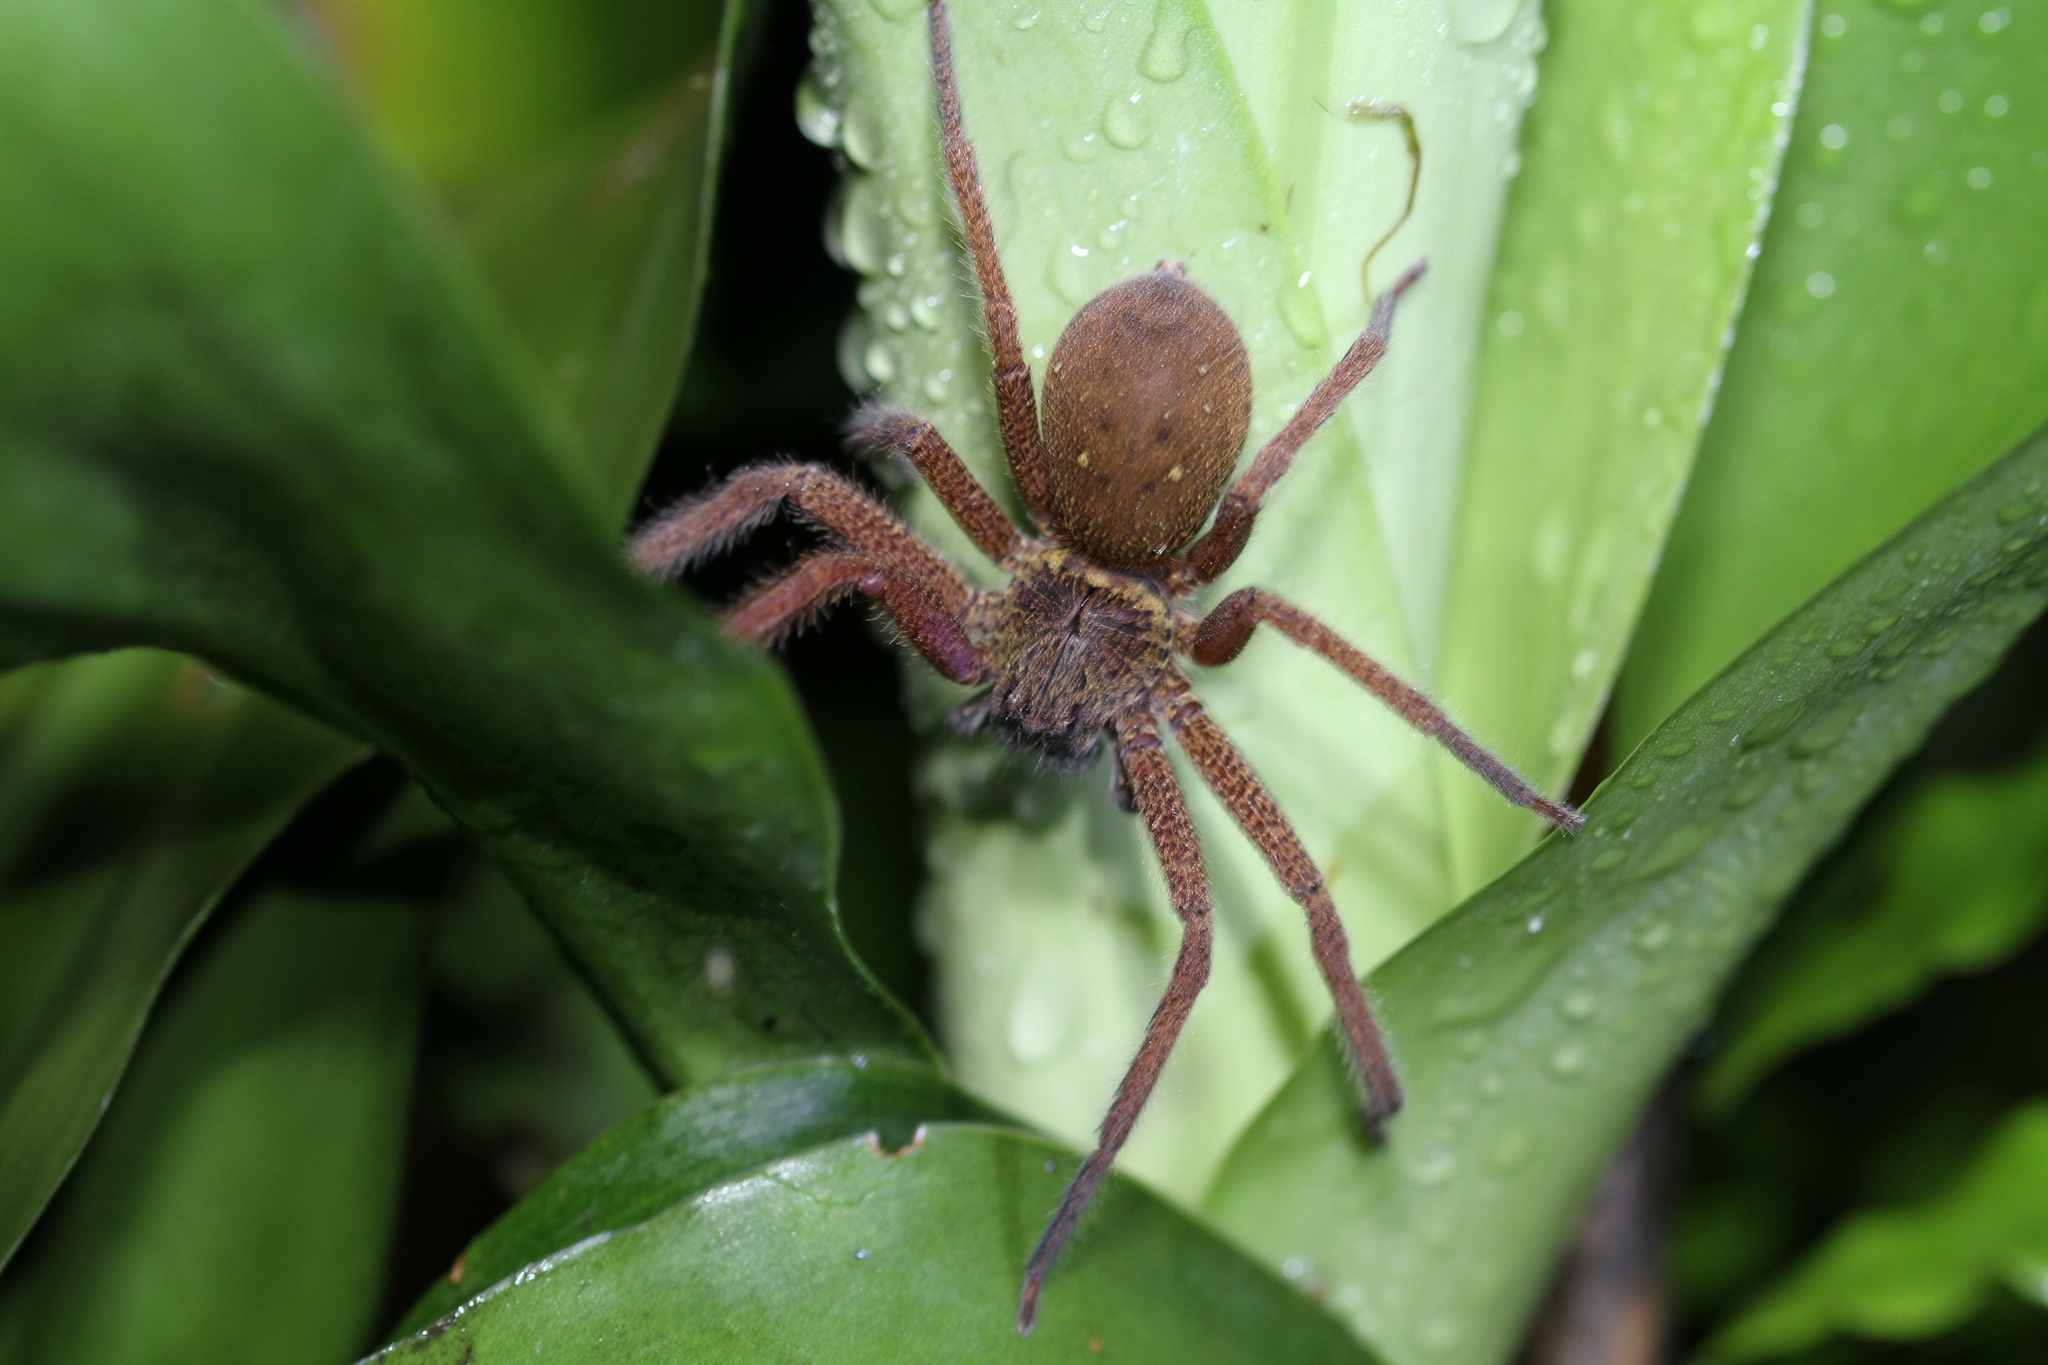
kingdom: Animalia
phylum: Arthropoda
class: Arachnida
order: Araneae
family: Sparassidae
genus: Heteropoda
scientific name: Heteropoda martinae
